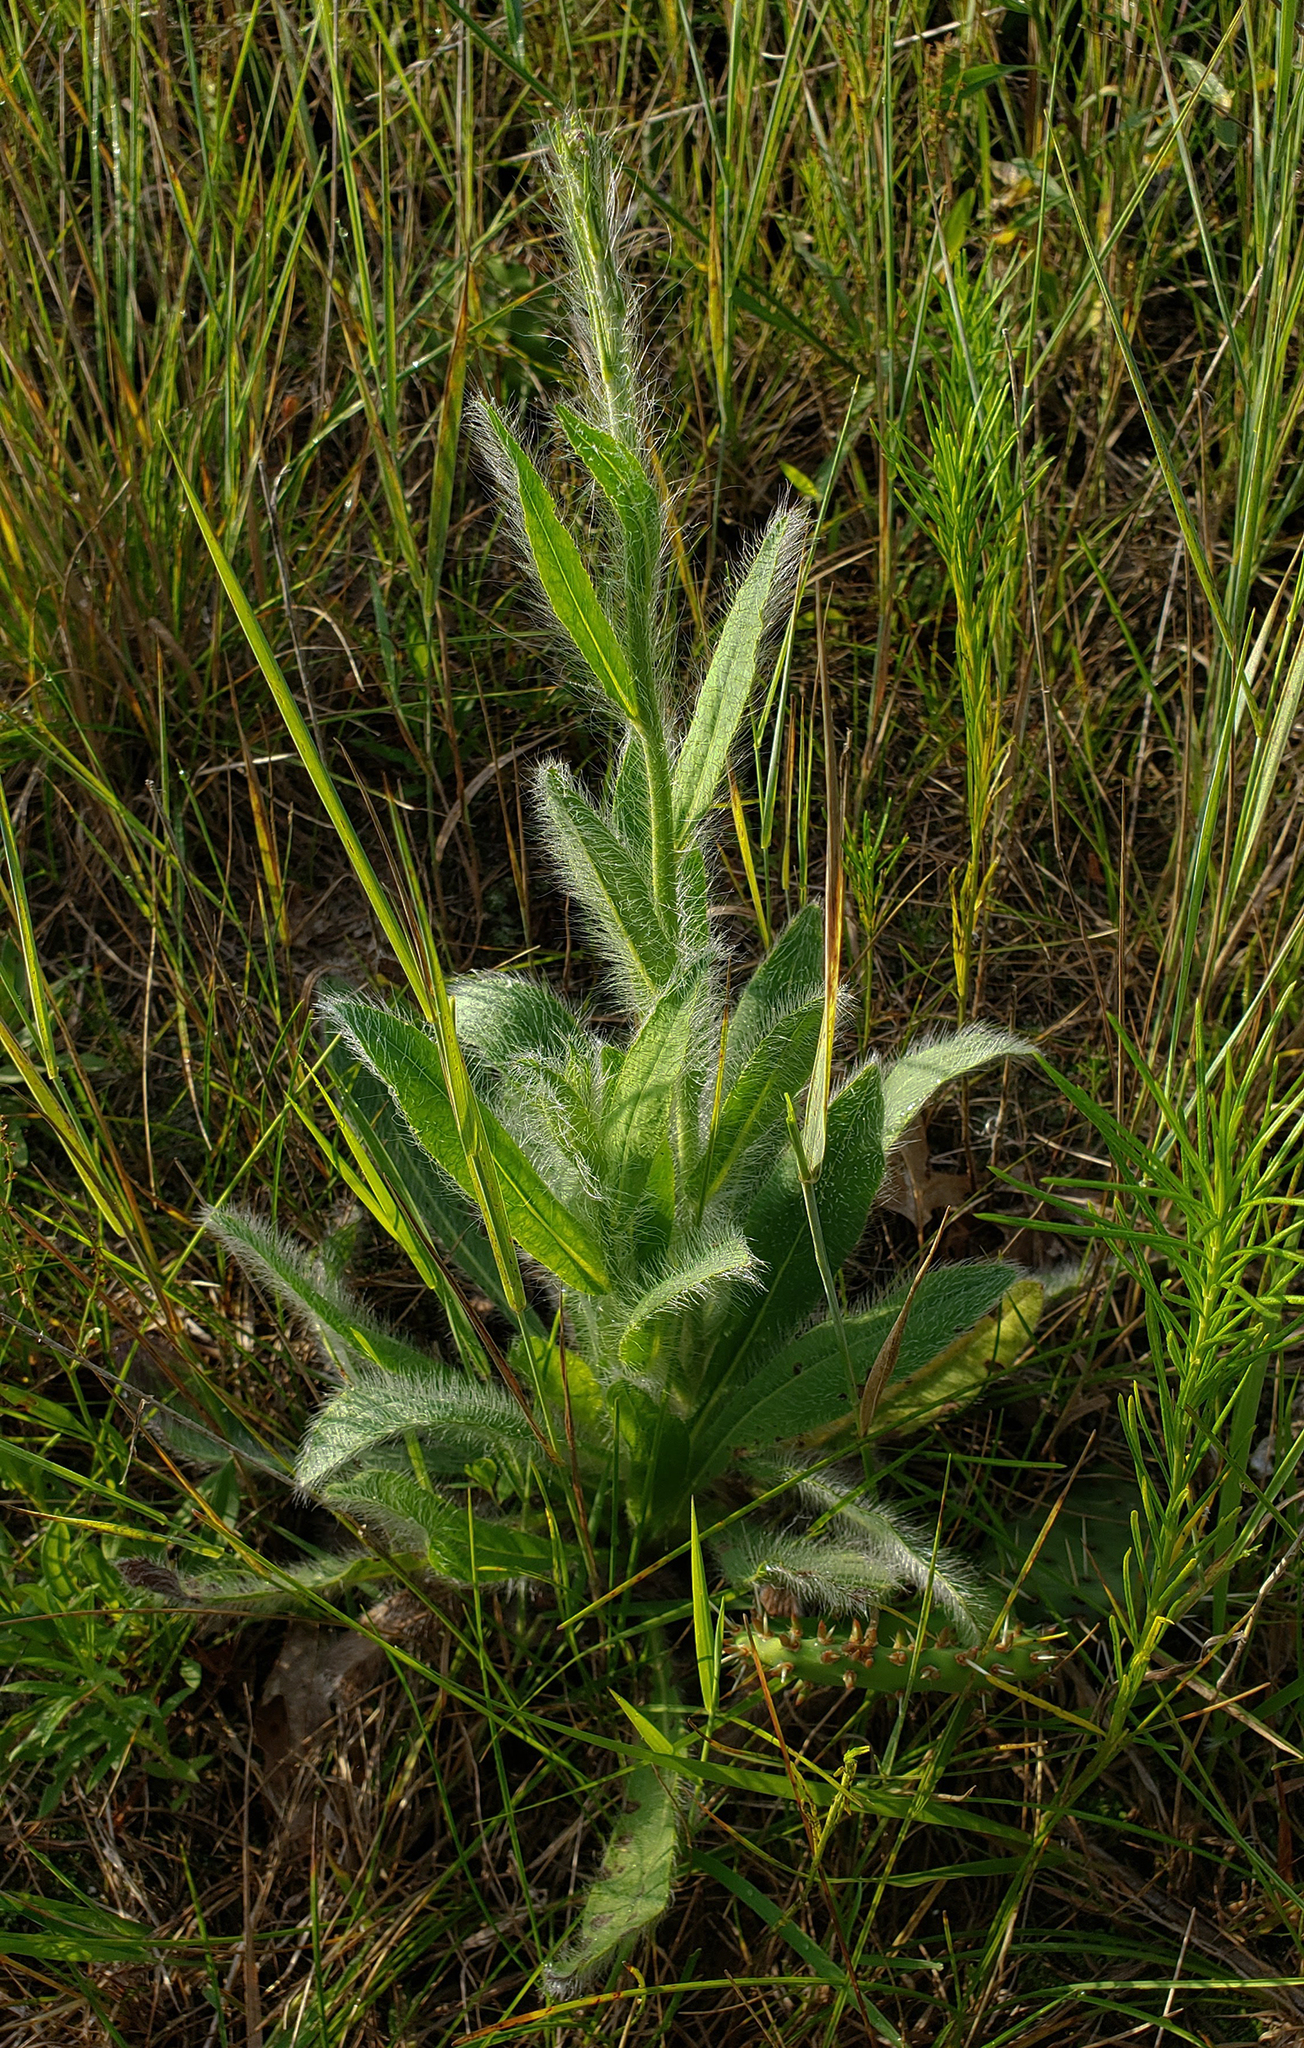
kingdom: Plantae
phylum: Tracheophyta
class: Magnoliopsida
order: Asterales
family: Asteraceae
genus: Hieracium
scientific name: Hieracium longipilum
